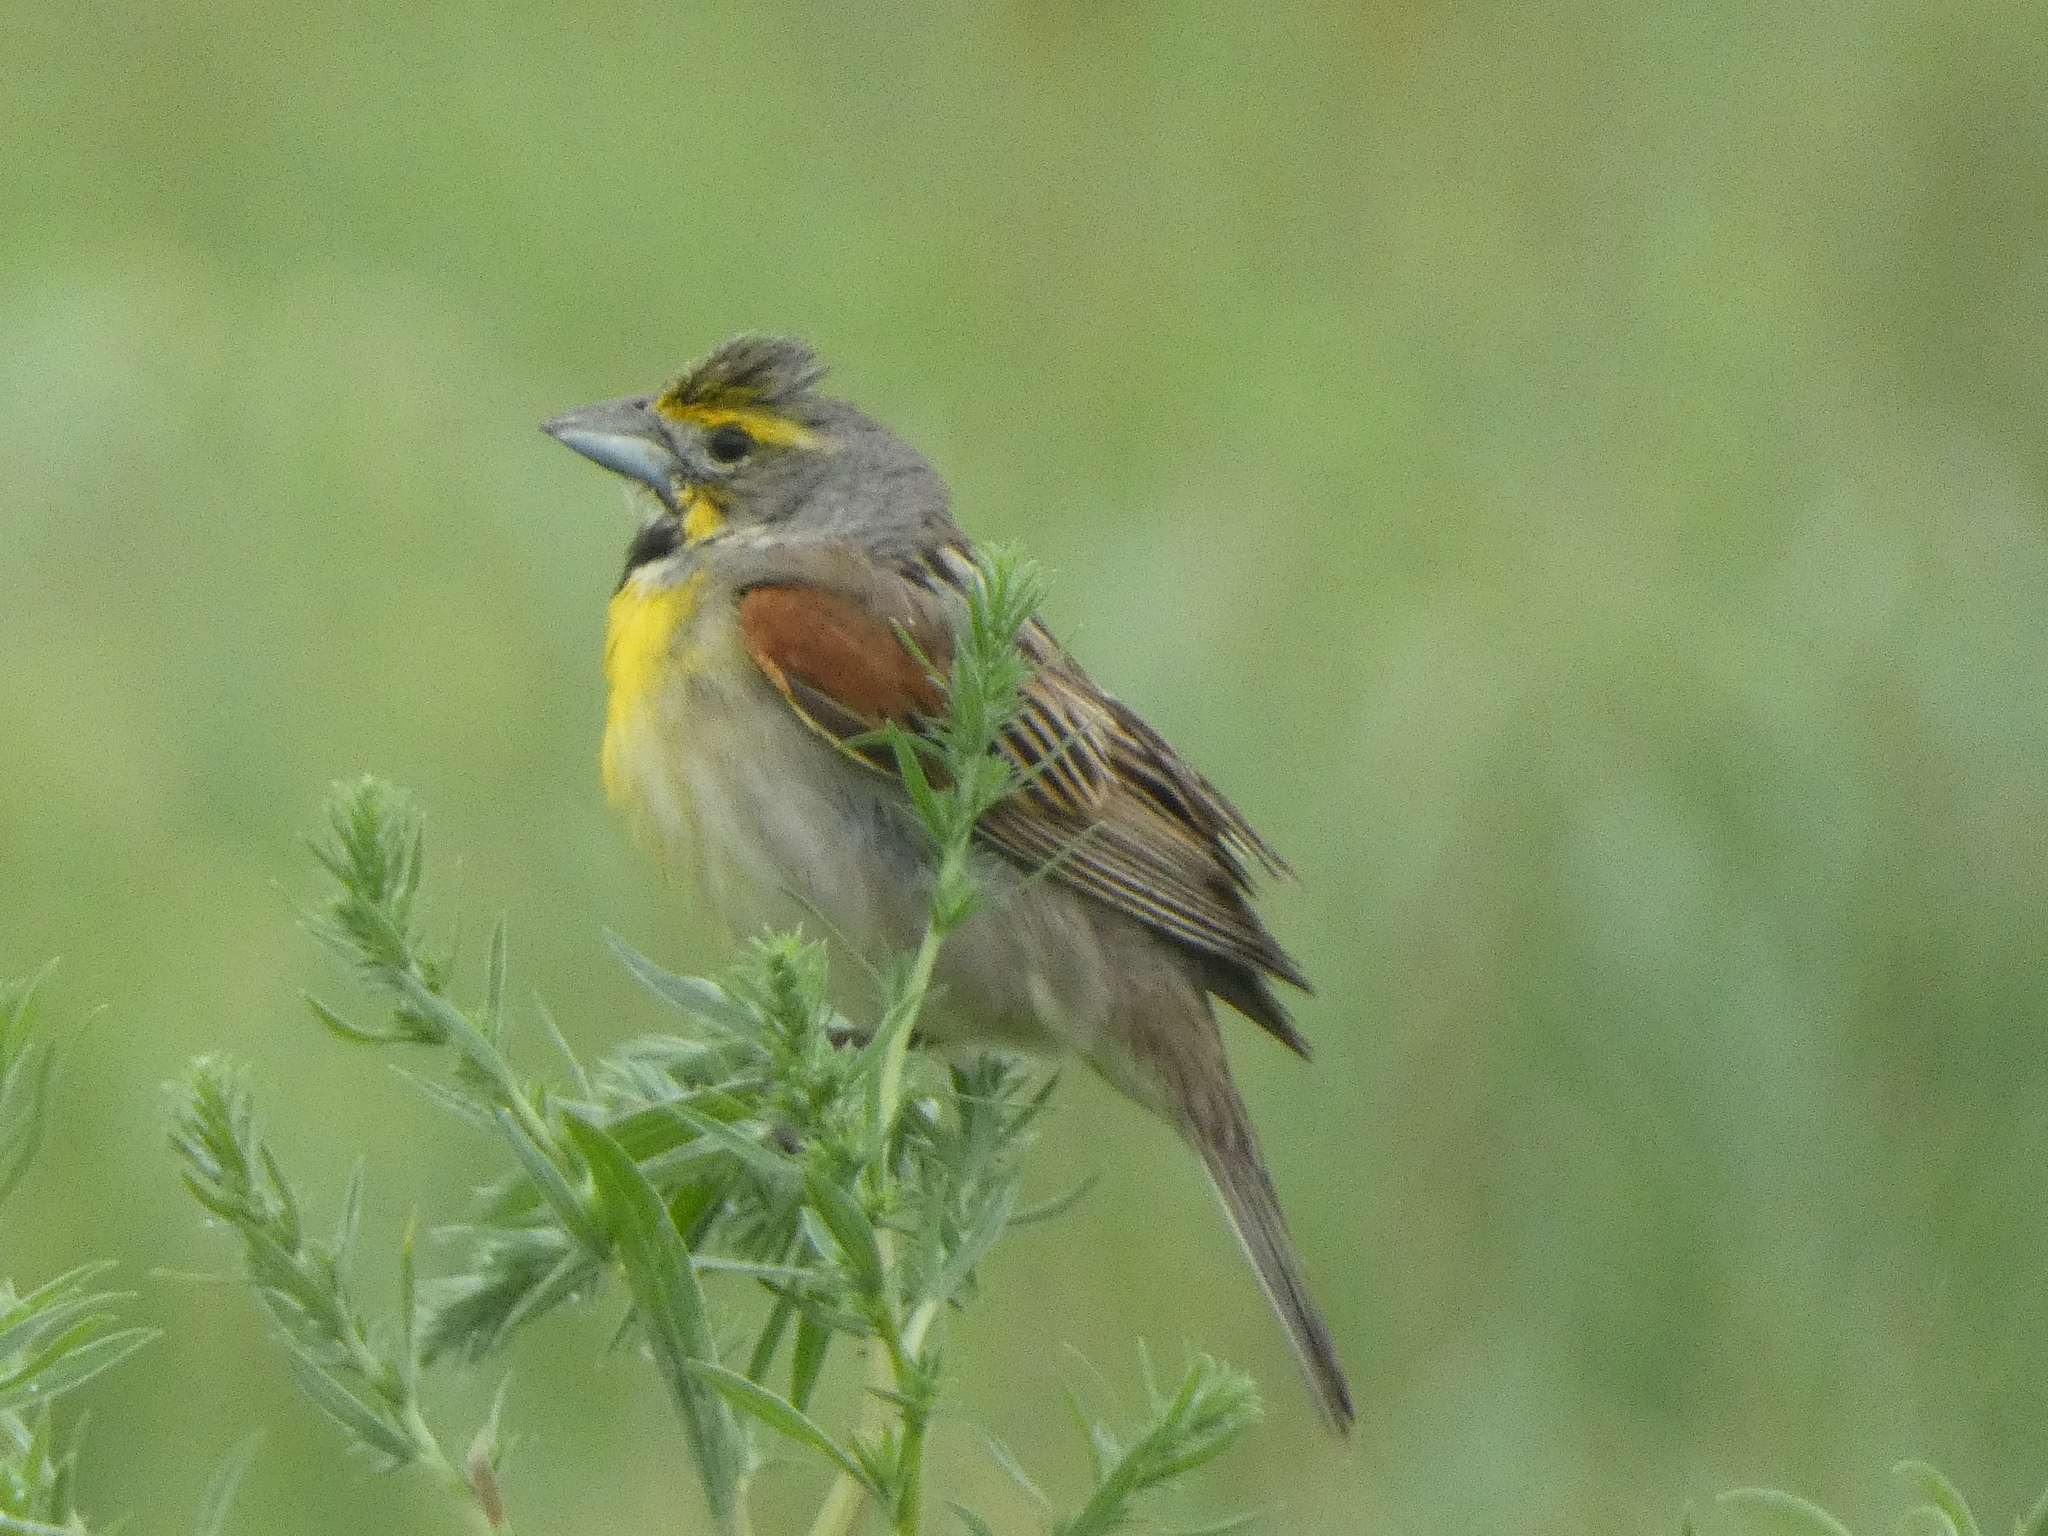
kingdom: Animalia
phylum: Chordata
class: Aves
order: Passeriformes
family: Cardinalidae
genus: Spiza
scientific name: Spiza americana
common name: Dickcissel
